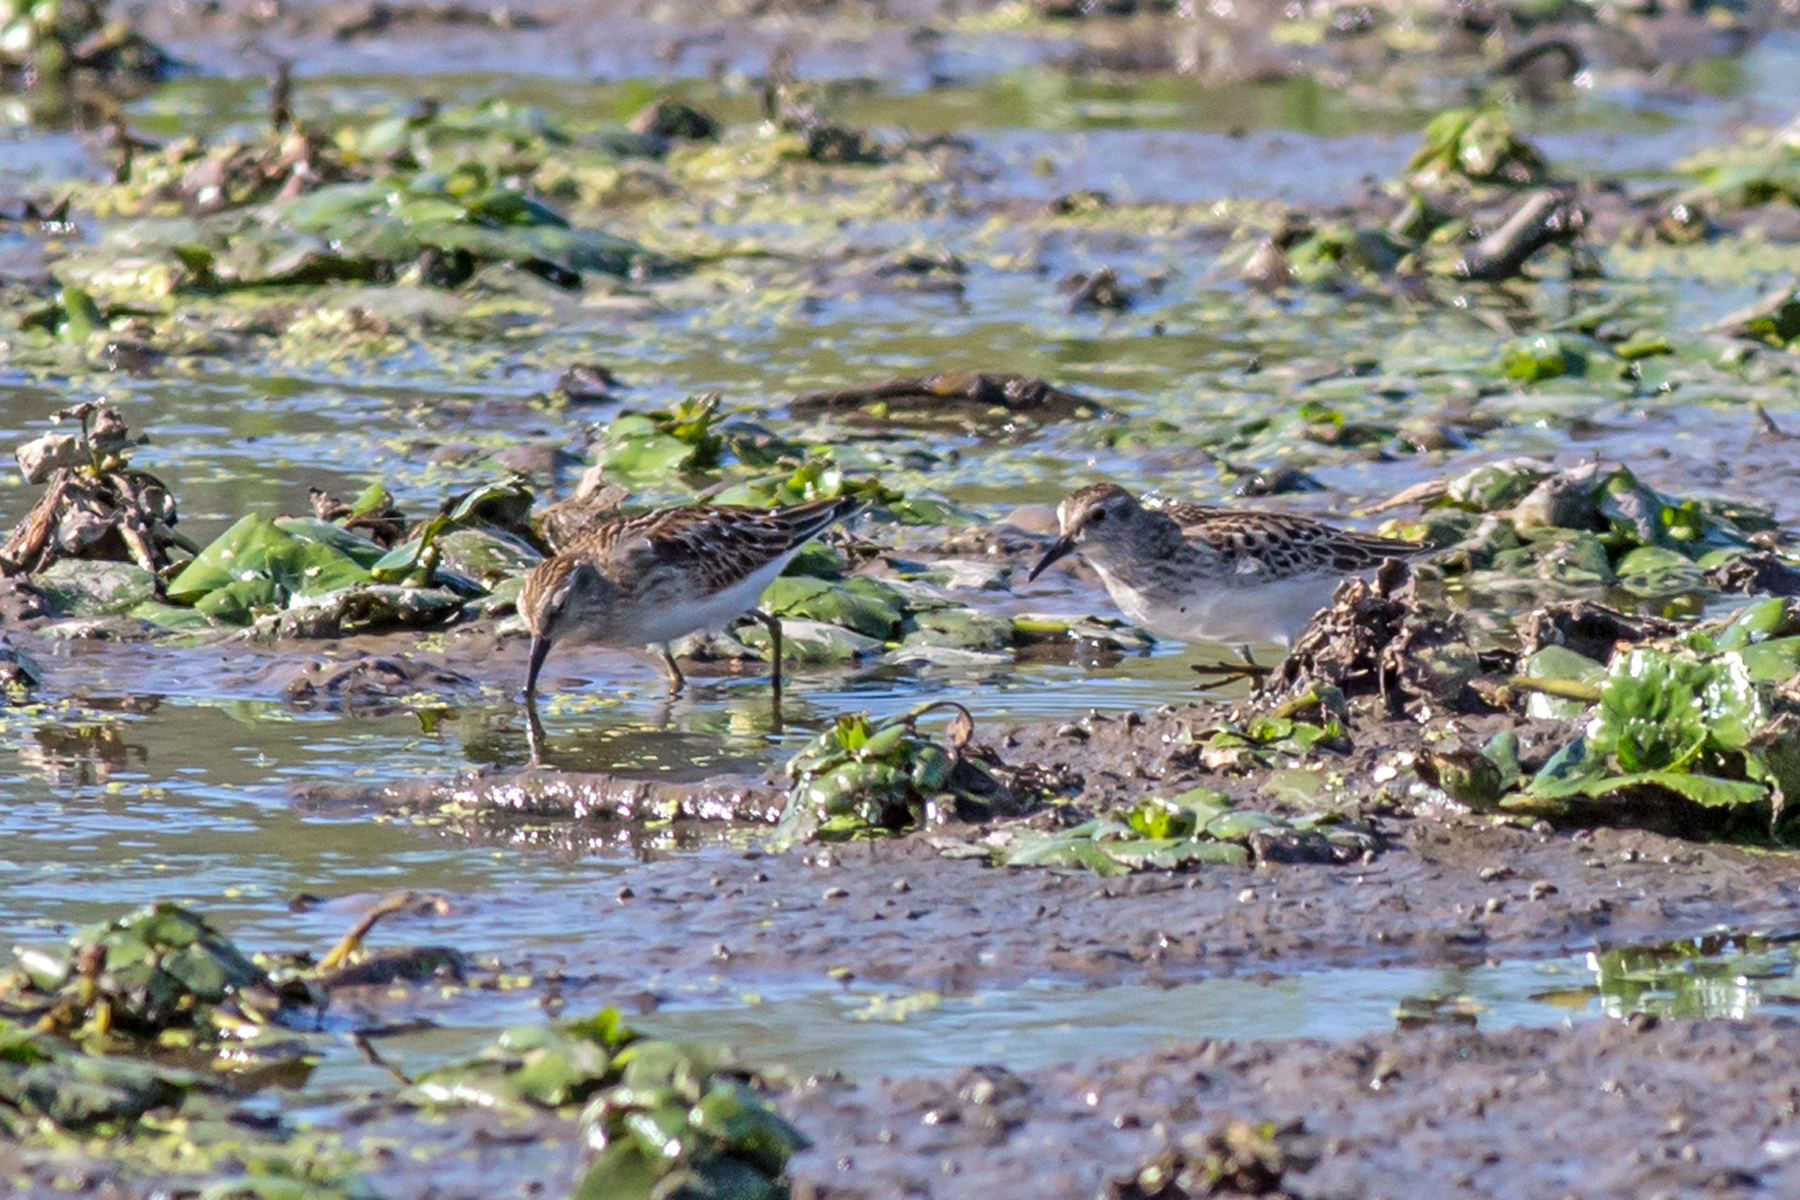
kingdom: Animalia
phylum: Chordata
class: Aves
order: Charadriiformes
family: Scolopacidae
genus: Calidris
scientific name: Calidris minutilla
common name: Least sandpiper
